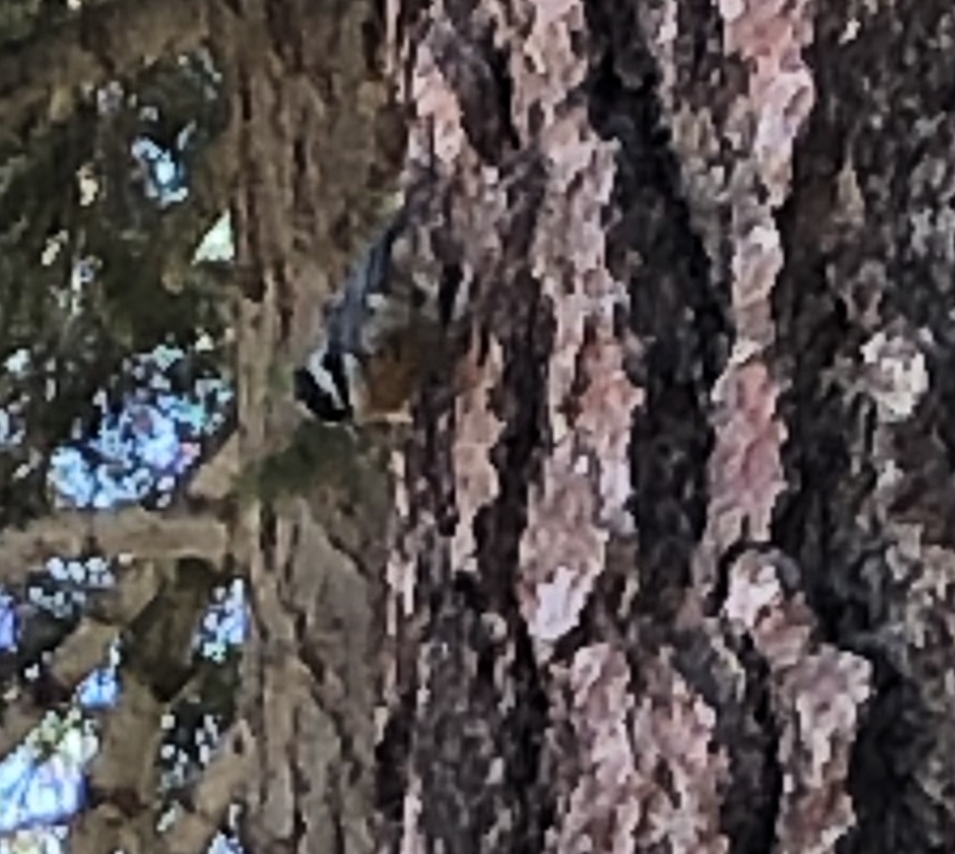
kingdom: Animalia
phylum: Chordata
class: Aves
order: Passeriformes
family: Sittidae
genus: Sitta
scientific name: Sitta canadensis
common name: Red-breasted nuthatch
